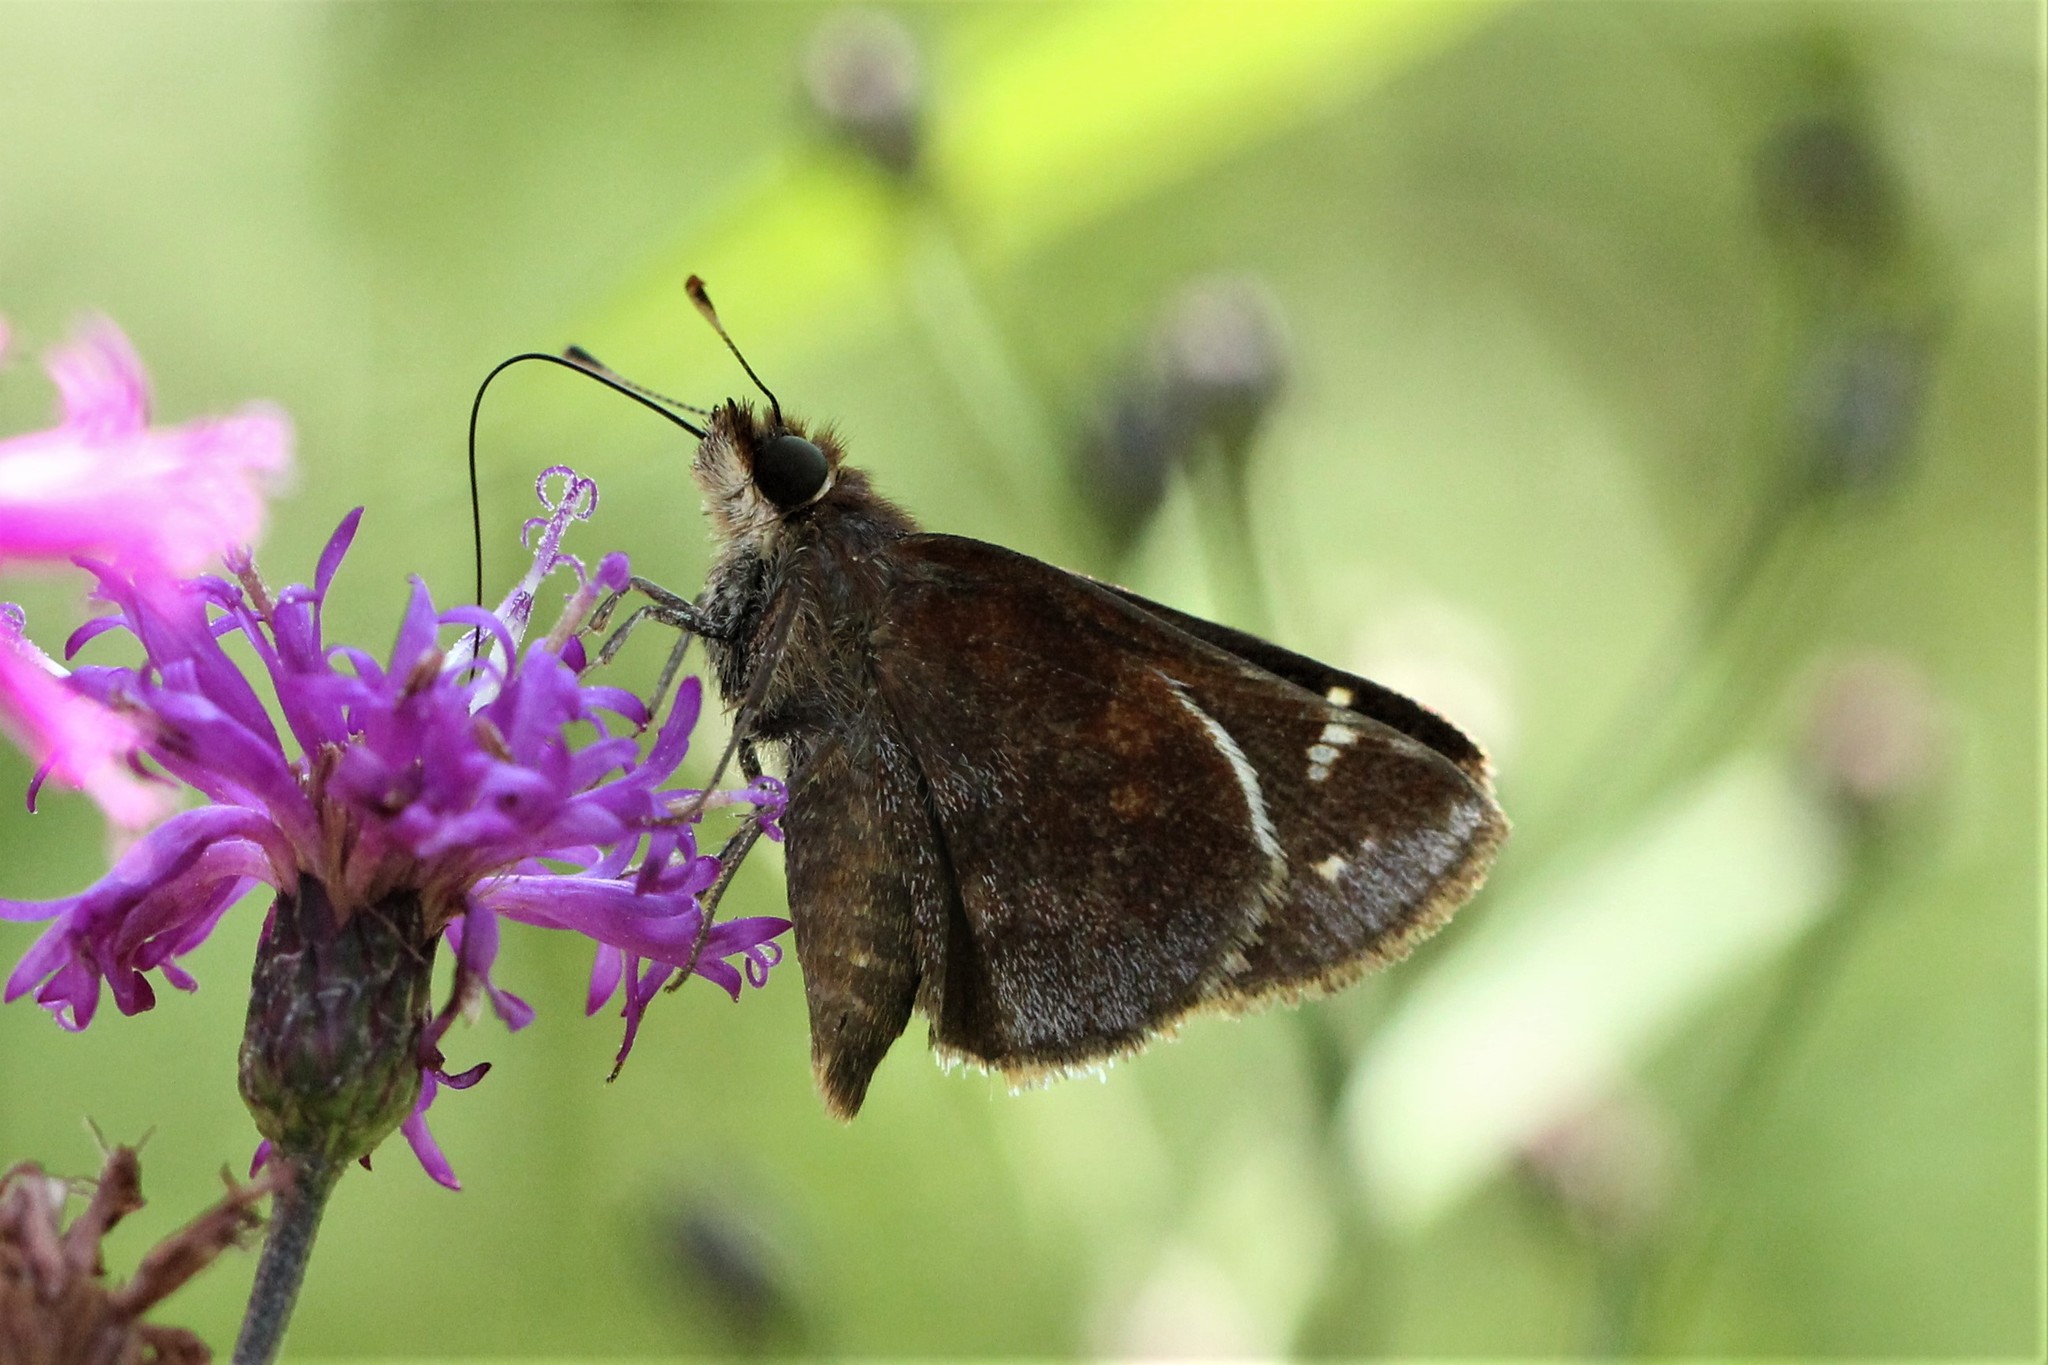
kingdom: Animalia
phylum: Arthropoda
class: Insecta
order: Lepidoptera
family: Hesperiidae
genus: Lon
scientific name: Lon zabulon
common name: Zabulon skipper
